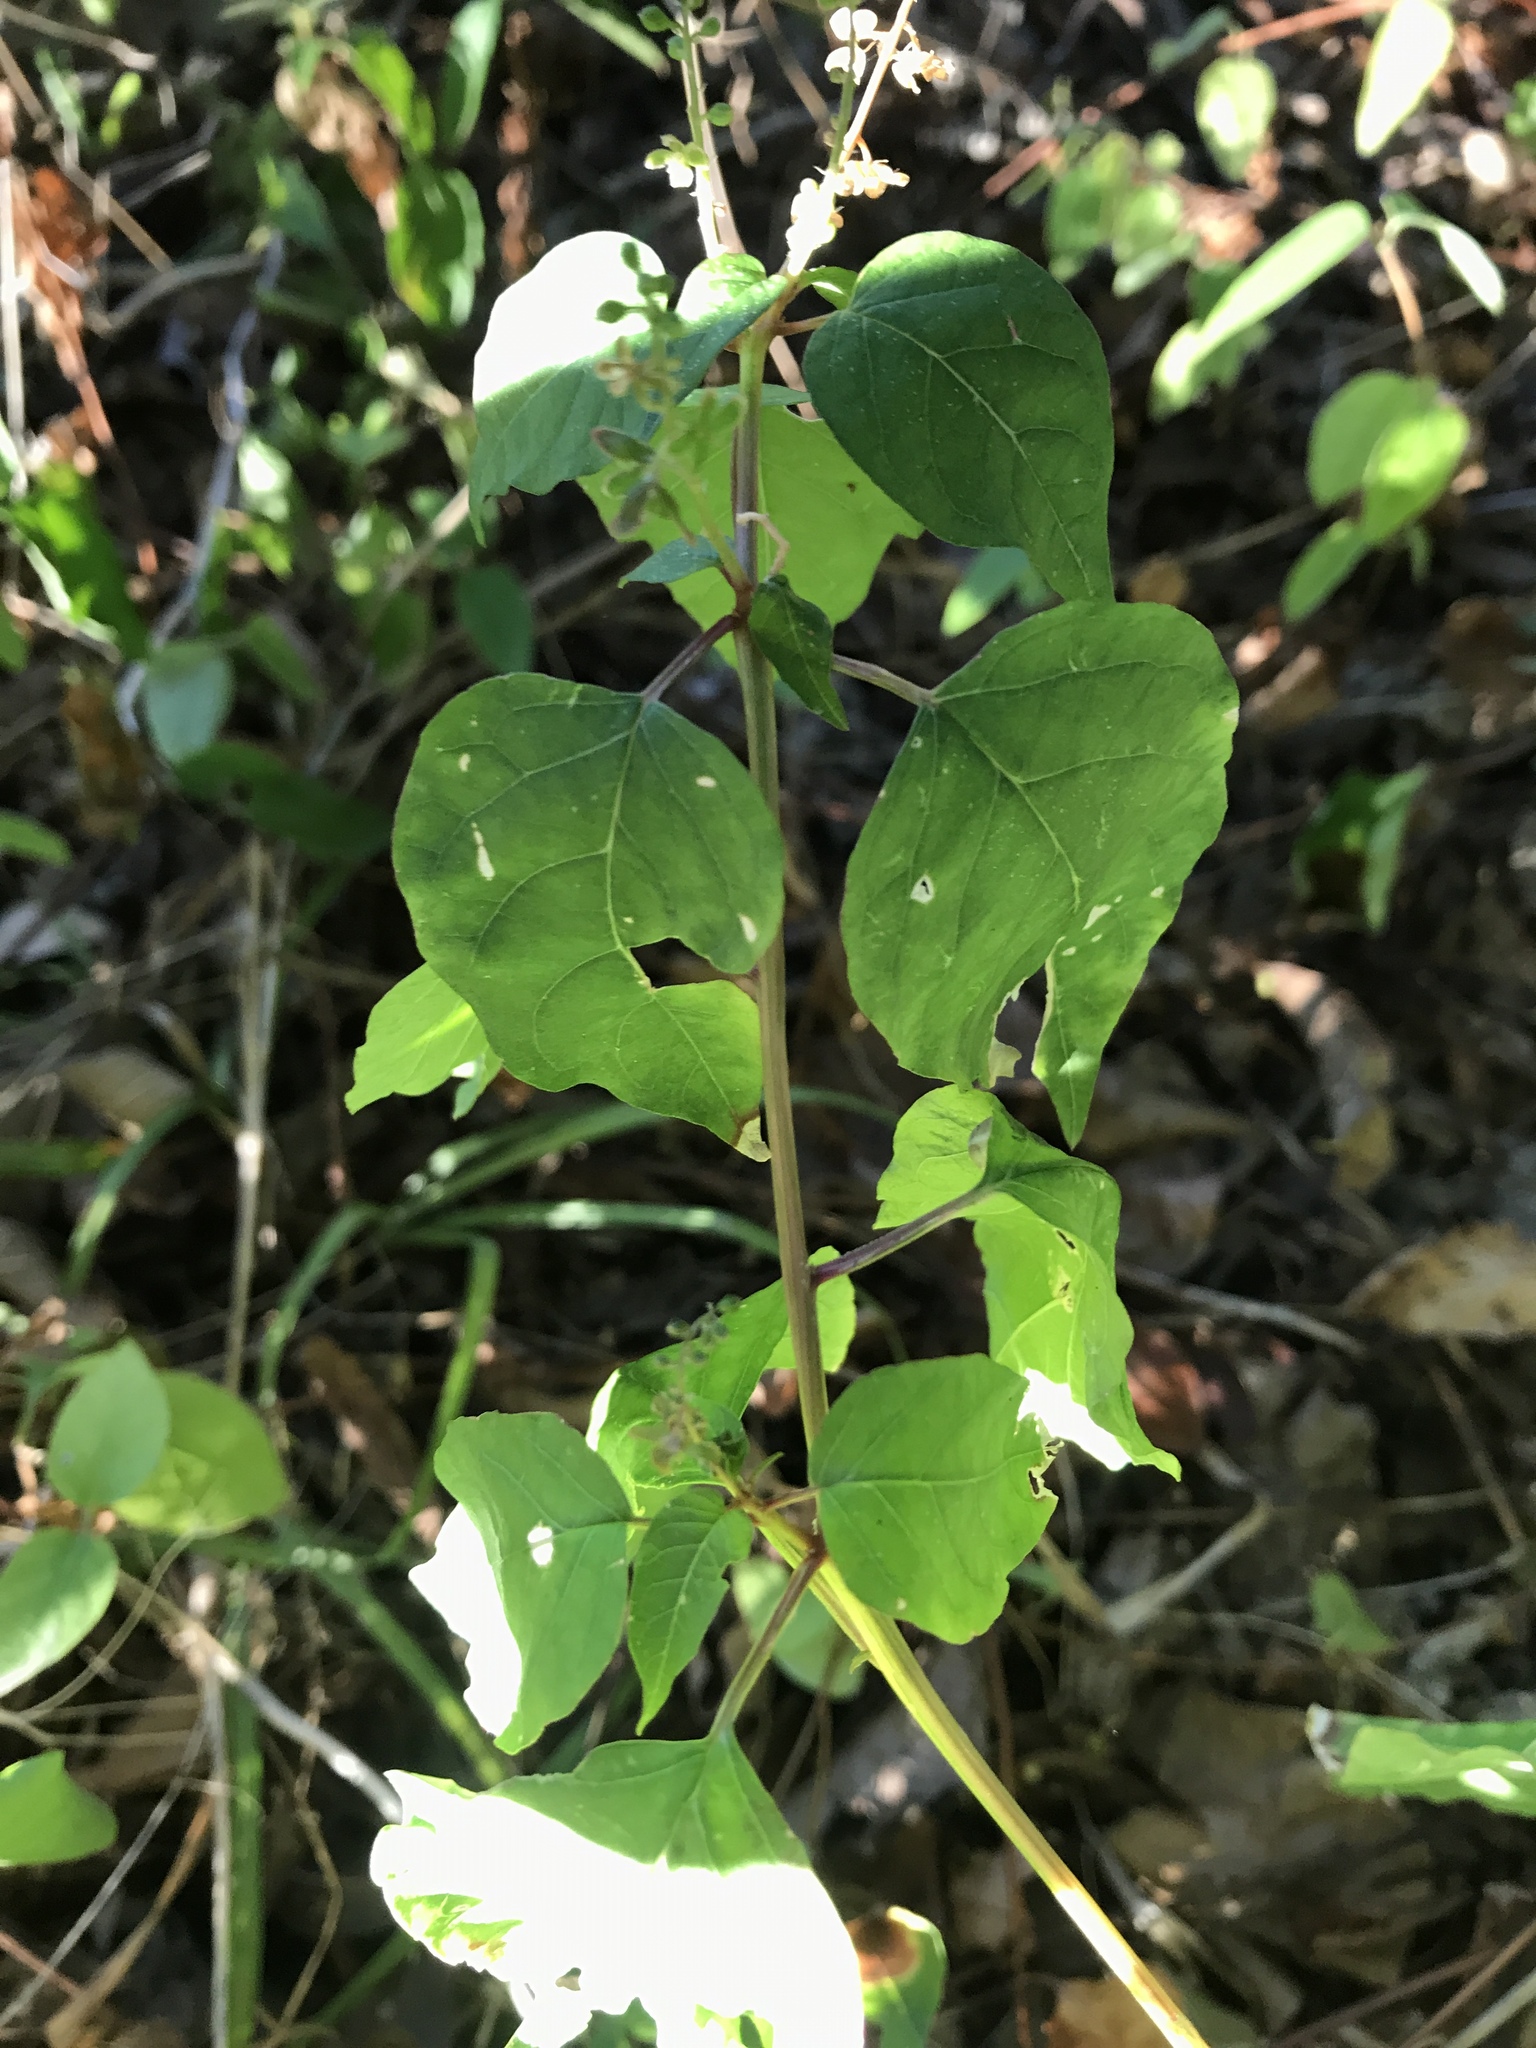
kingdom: Plantae
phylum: Tracheophyta
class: Magnoliopsida
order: Caryophyllales
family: Phytolaccaceae
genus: Rivina
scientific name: Rivina humilis
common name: Rougeplant
